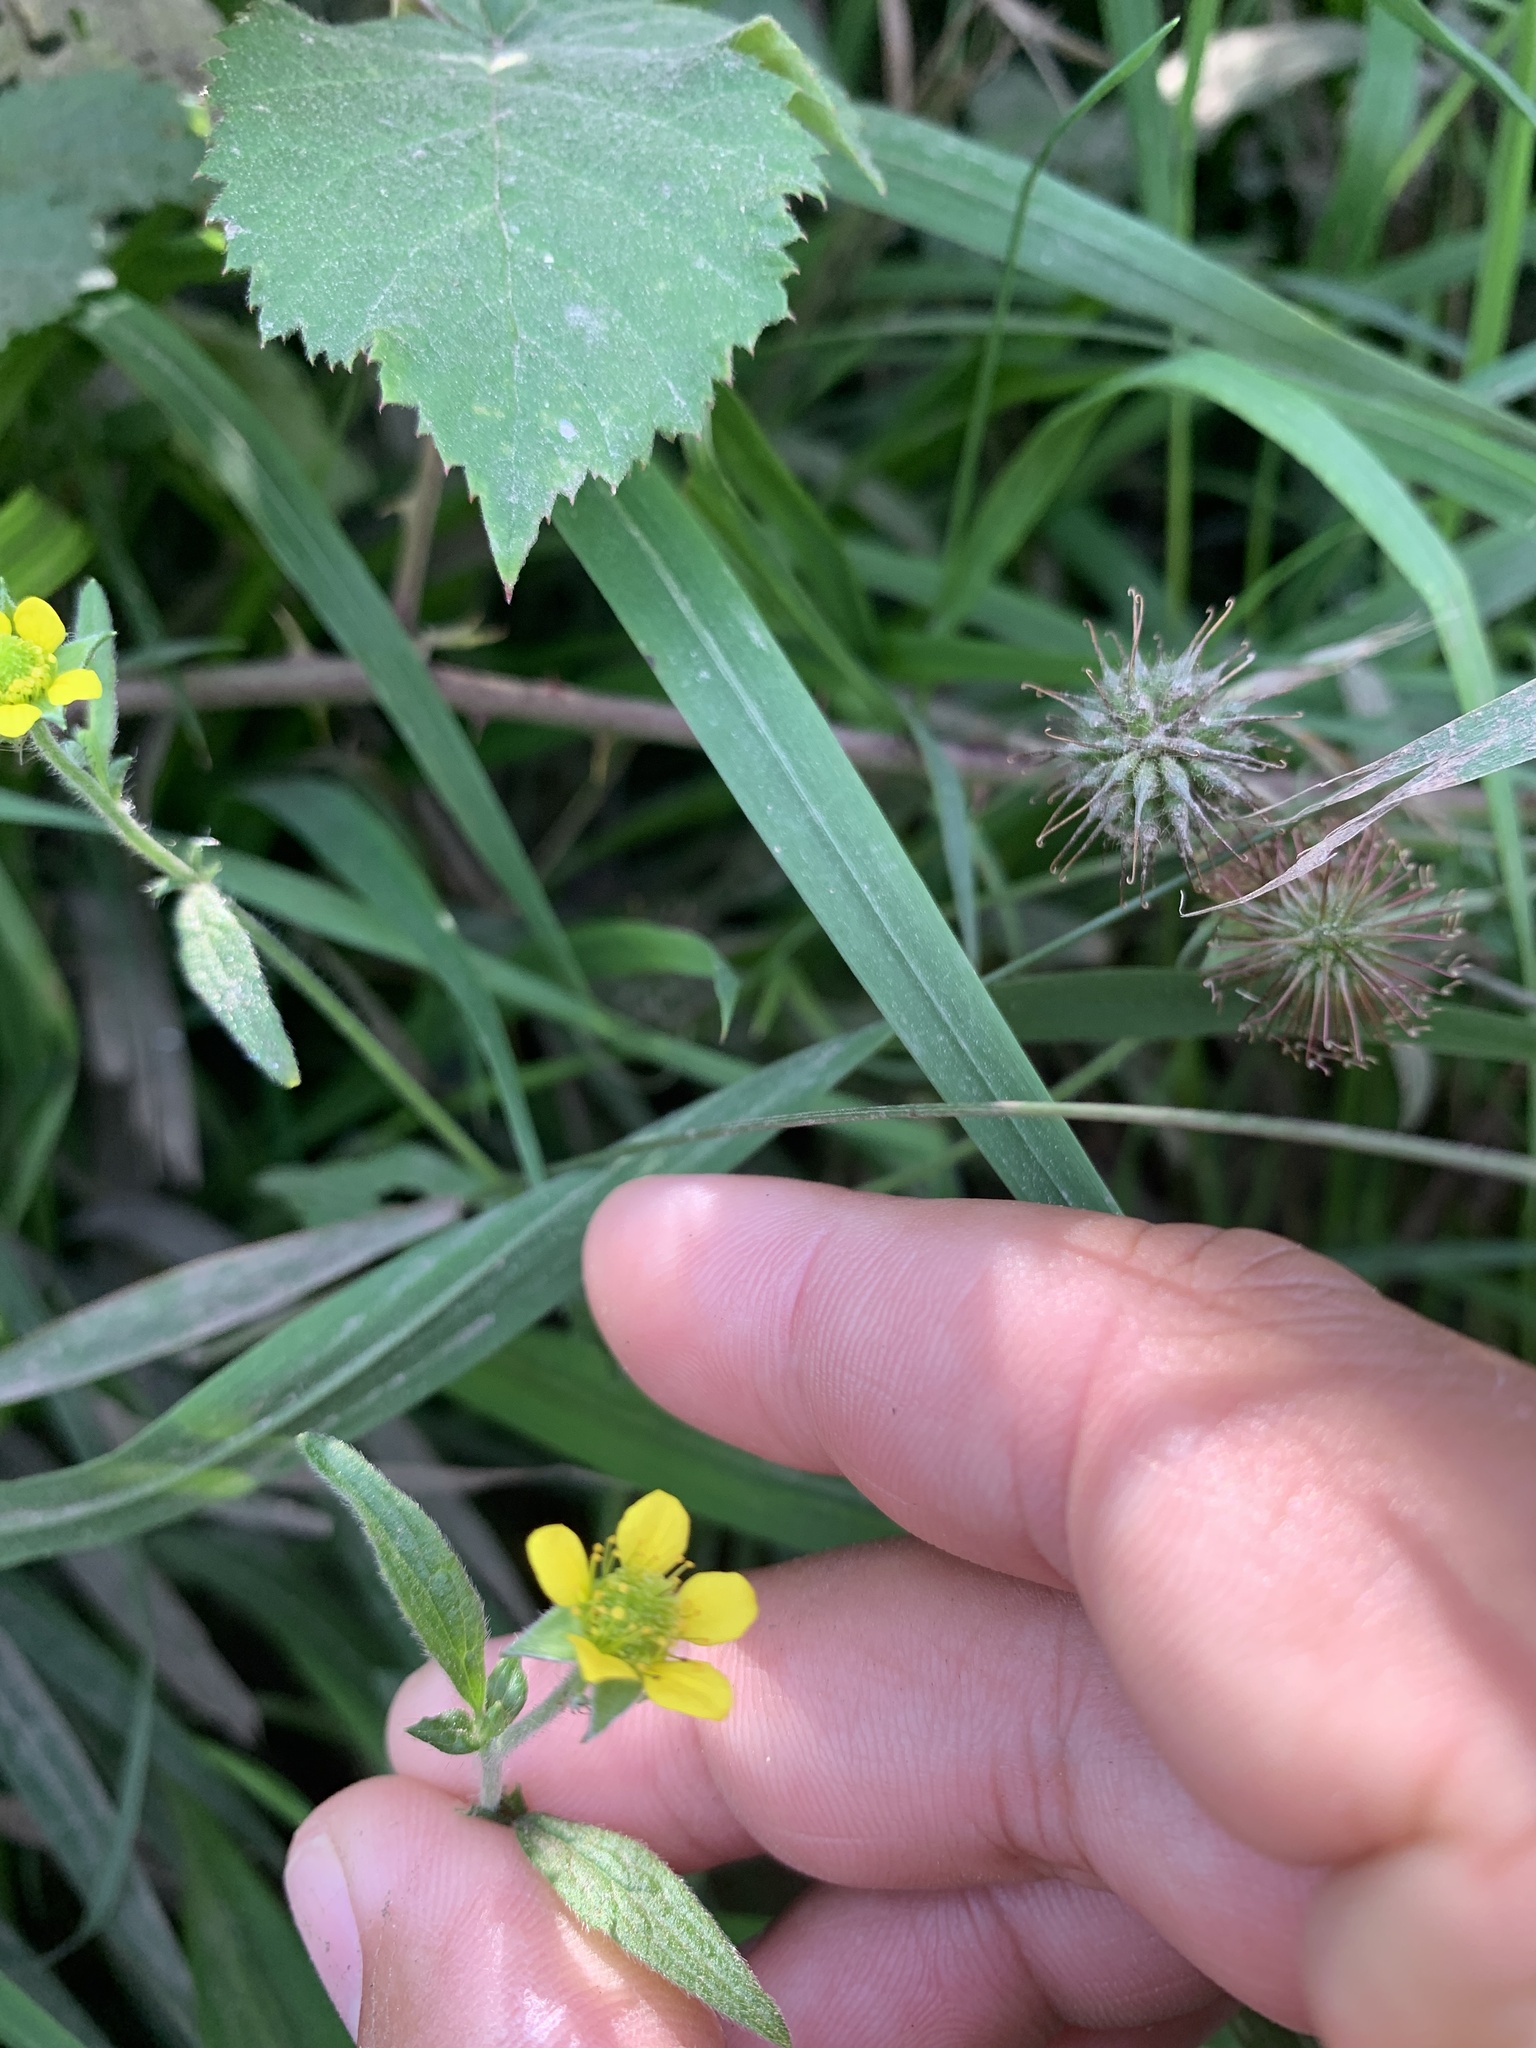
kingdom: Plantae
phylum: Tracheophyta
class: Magnoliopsida
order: Rosales
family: Rosaceae
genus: Geum
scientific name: Geum urbanum
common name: Wood avens
